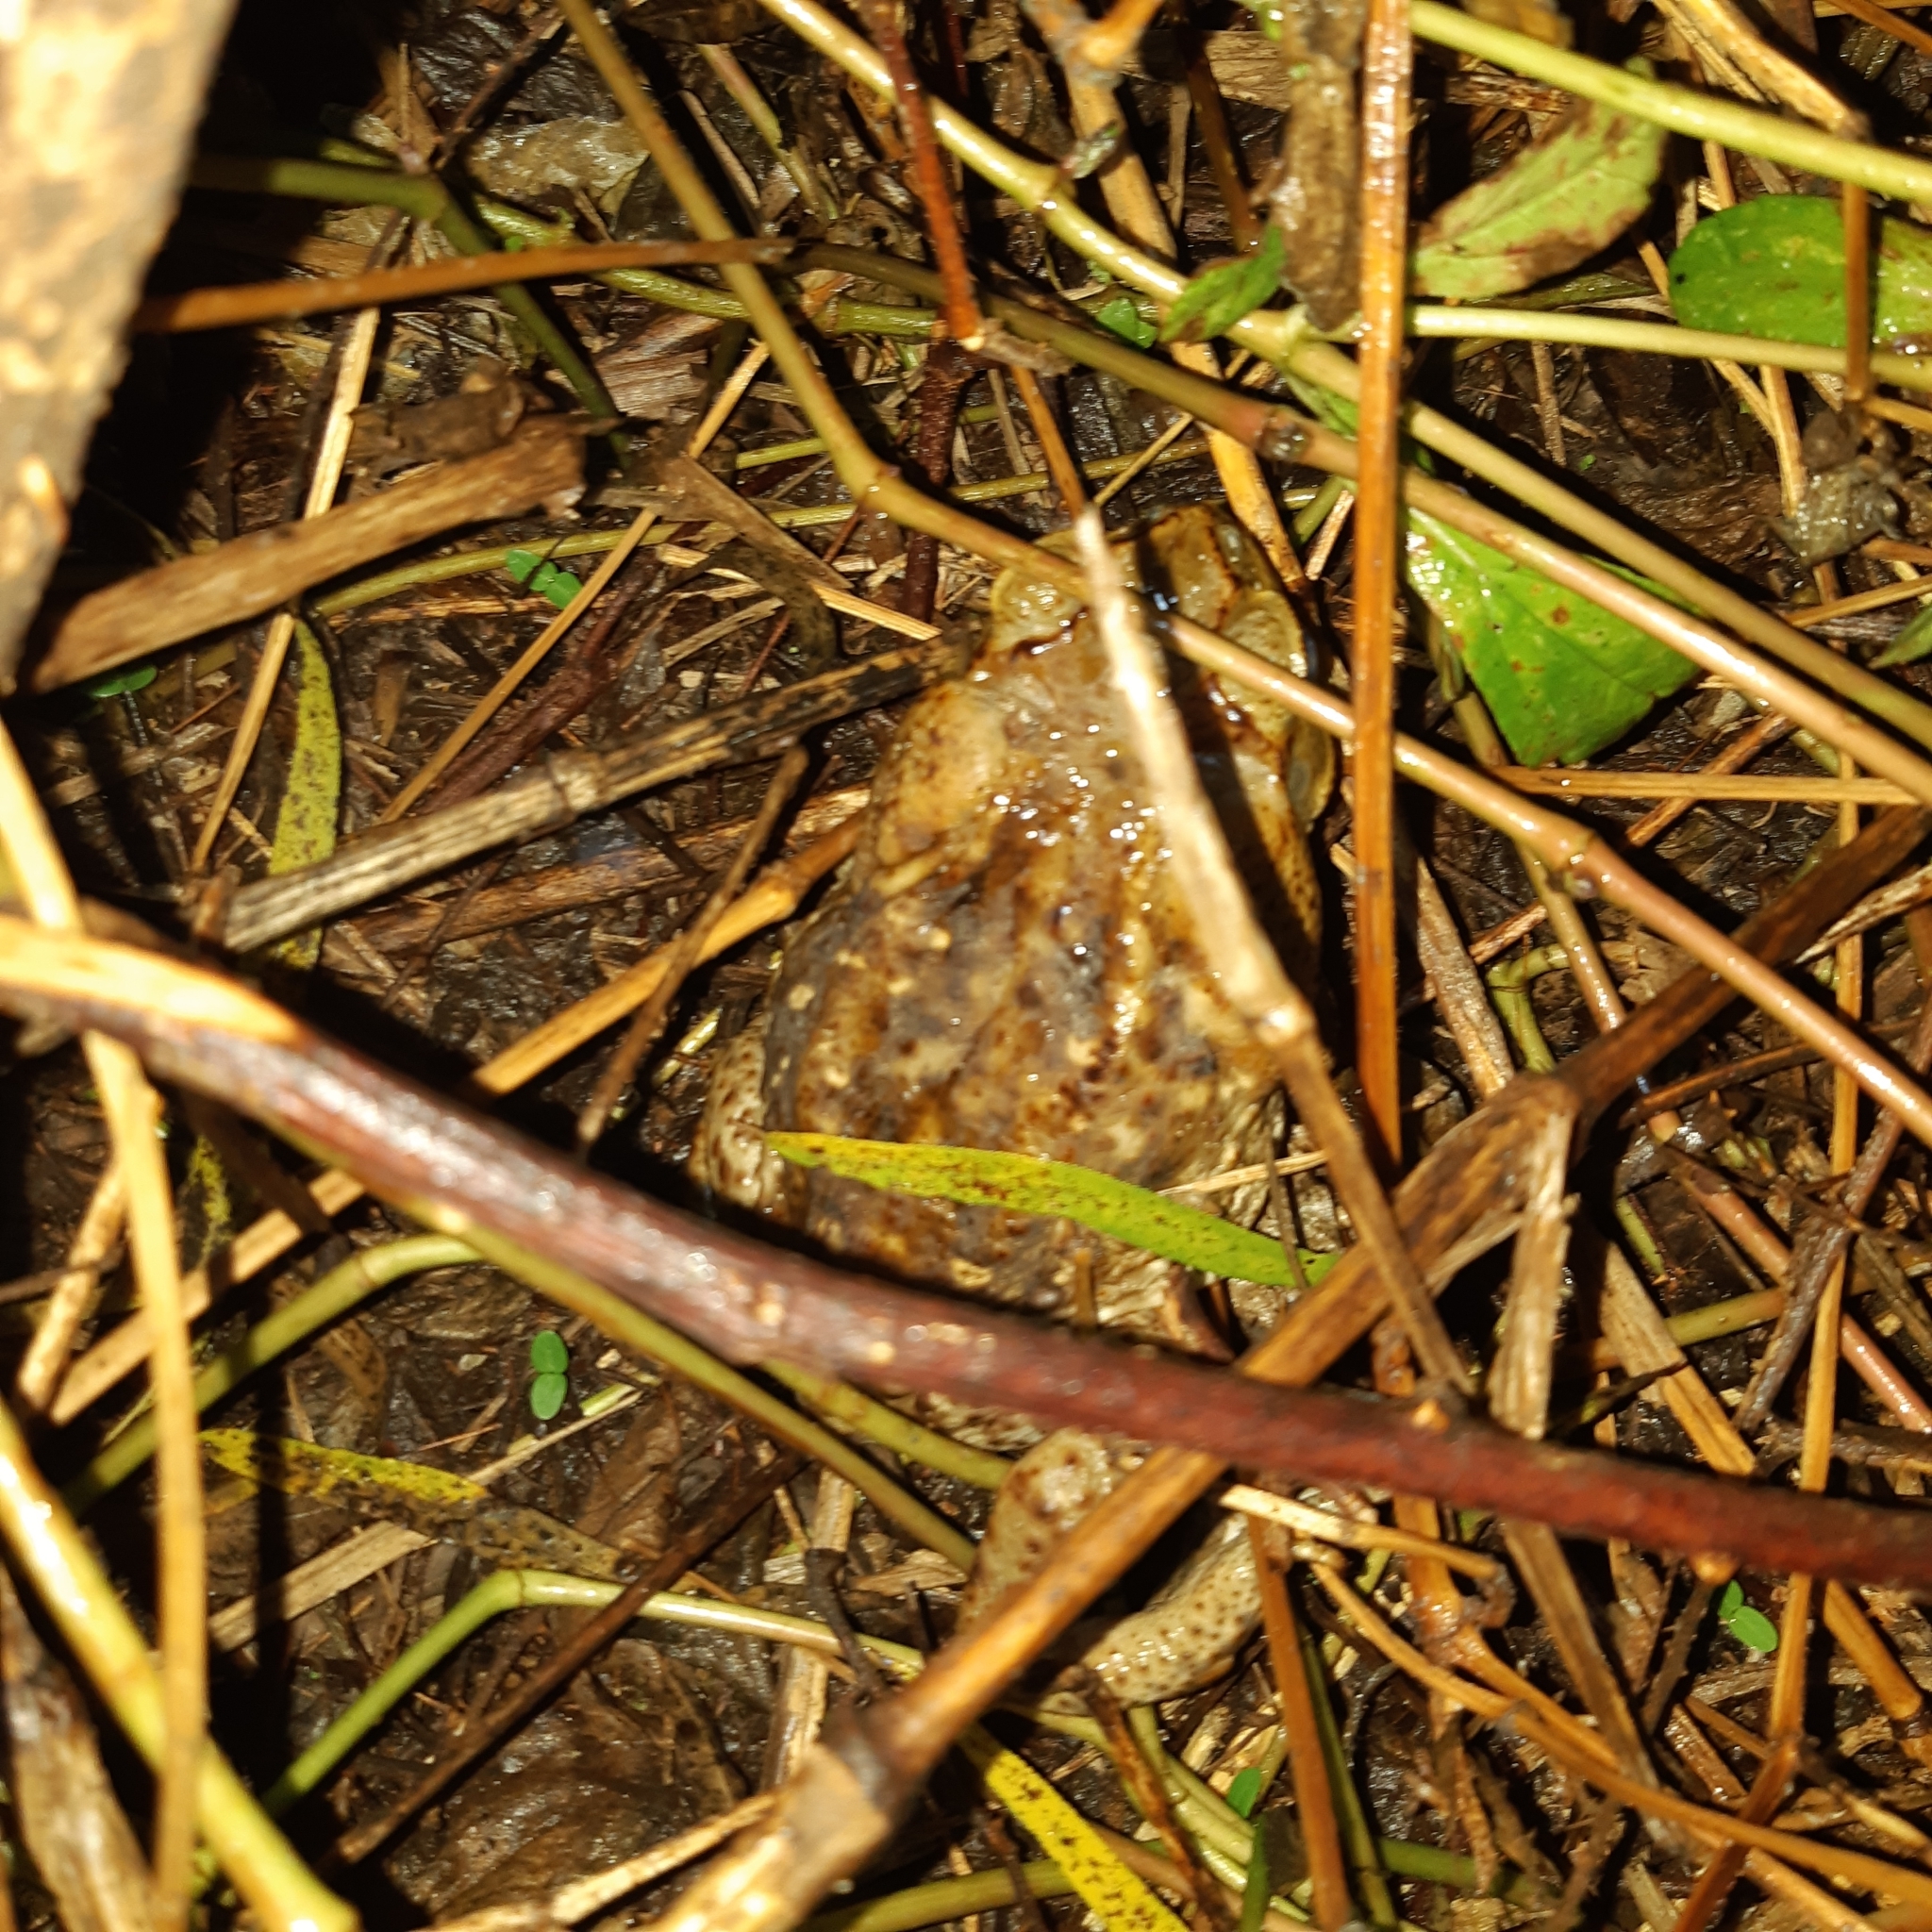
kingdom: Animalia
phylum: Chordata
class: Amphibia
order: Anura
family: Bufonidae
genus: Rhinella
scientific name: Rhinella horribilis
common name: Mesoamerican cane toad
